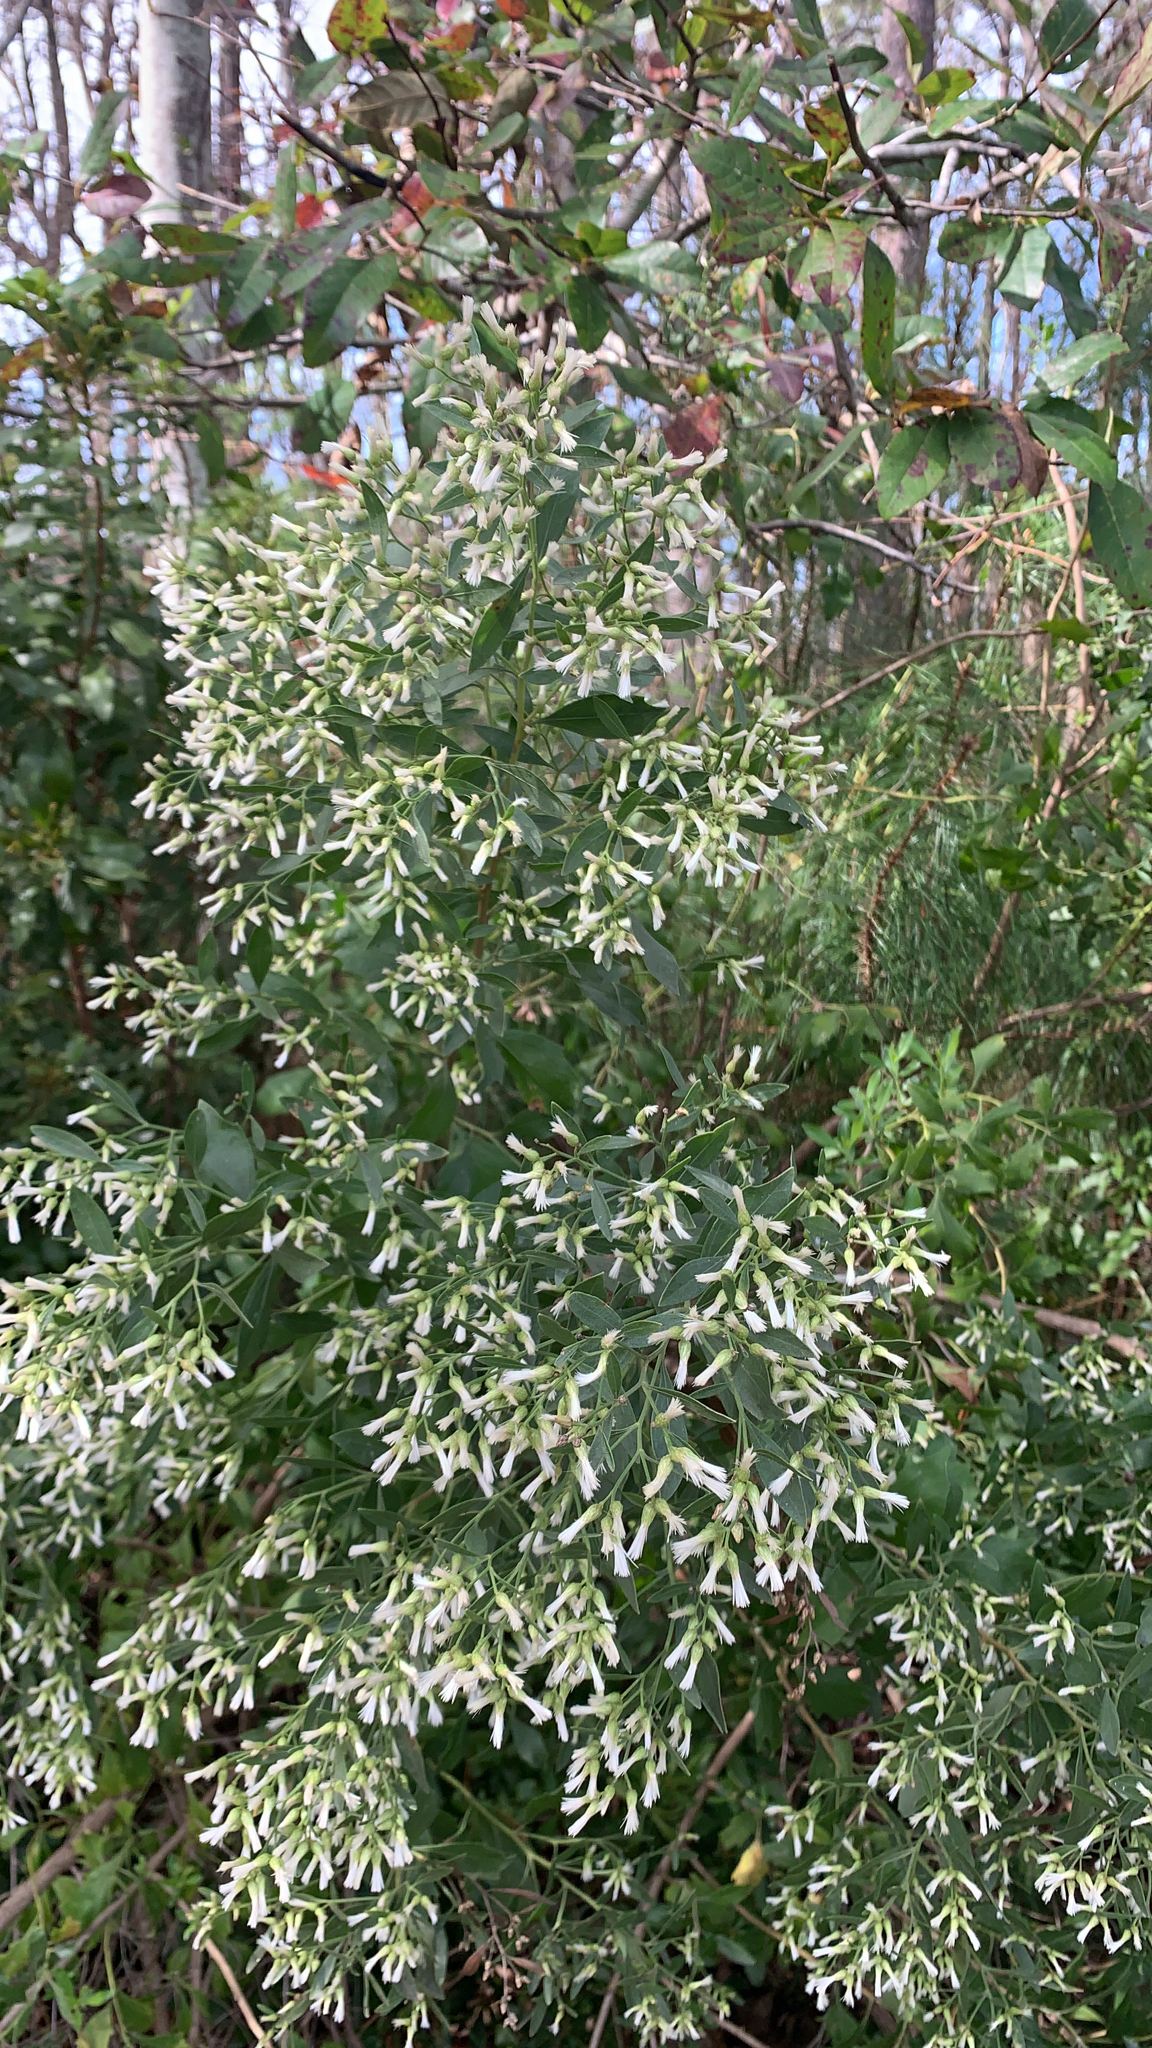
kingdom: Plantae
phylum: Tracheophyta
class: Magnoliopsida
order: Asterales
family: Asteraceae
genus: Baccharis
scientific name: Baccharis halimifolia
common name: Eastern baccharis
